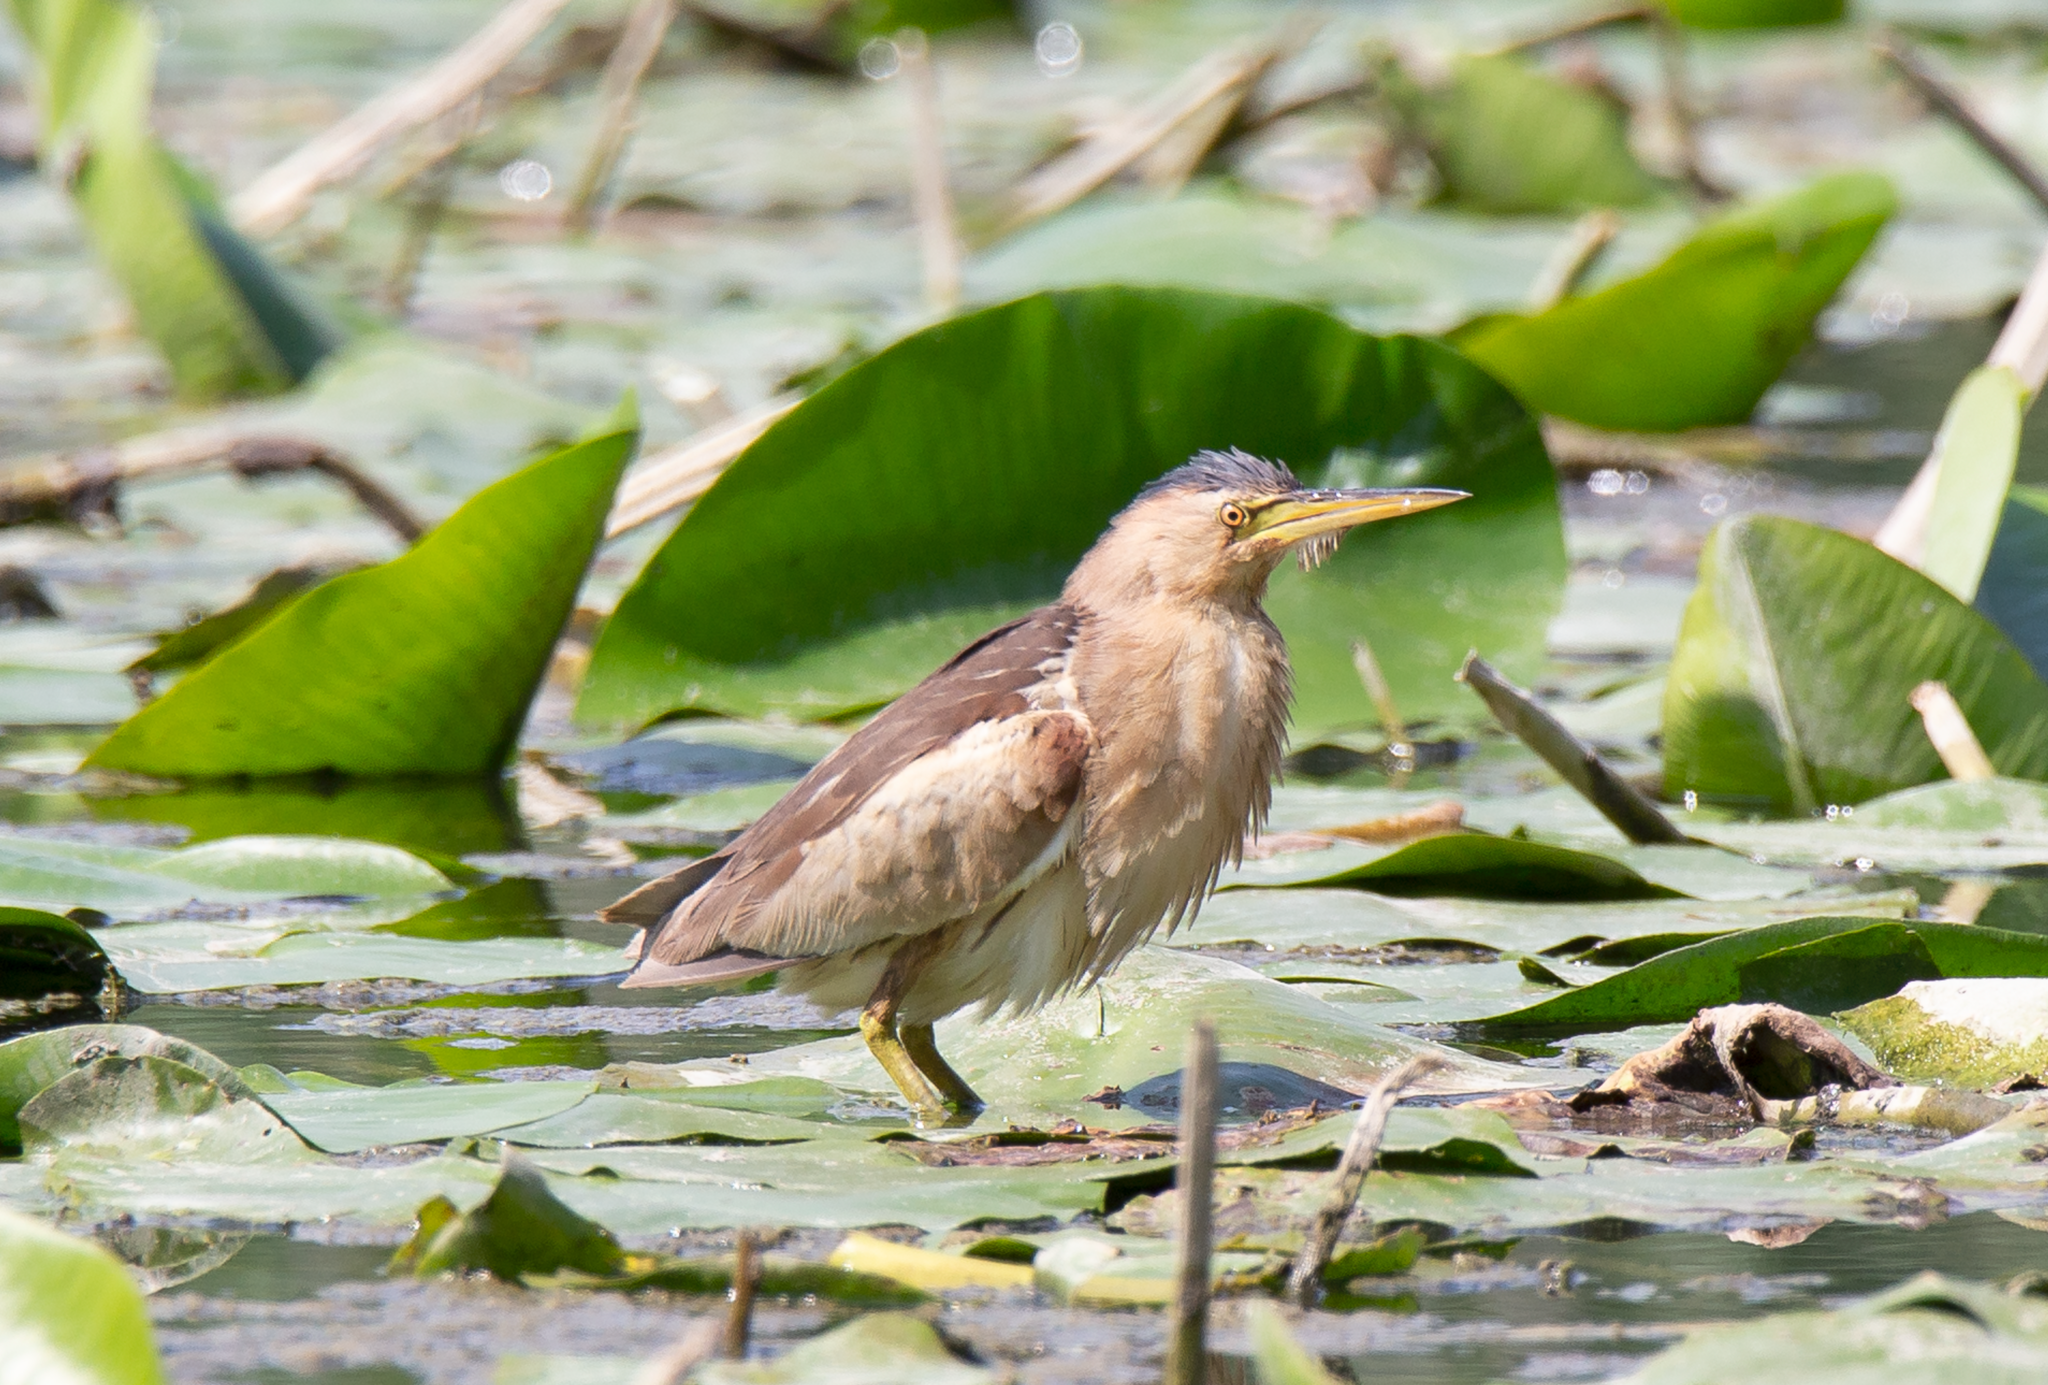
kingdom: Animalia
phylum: Chordata
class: Aves
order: Pelecaniformes
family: Ardeidae
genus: Ixobrychus
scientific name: Ixobrychus minutus
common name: Little bittern
